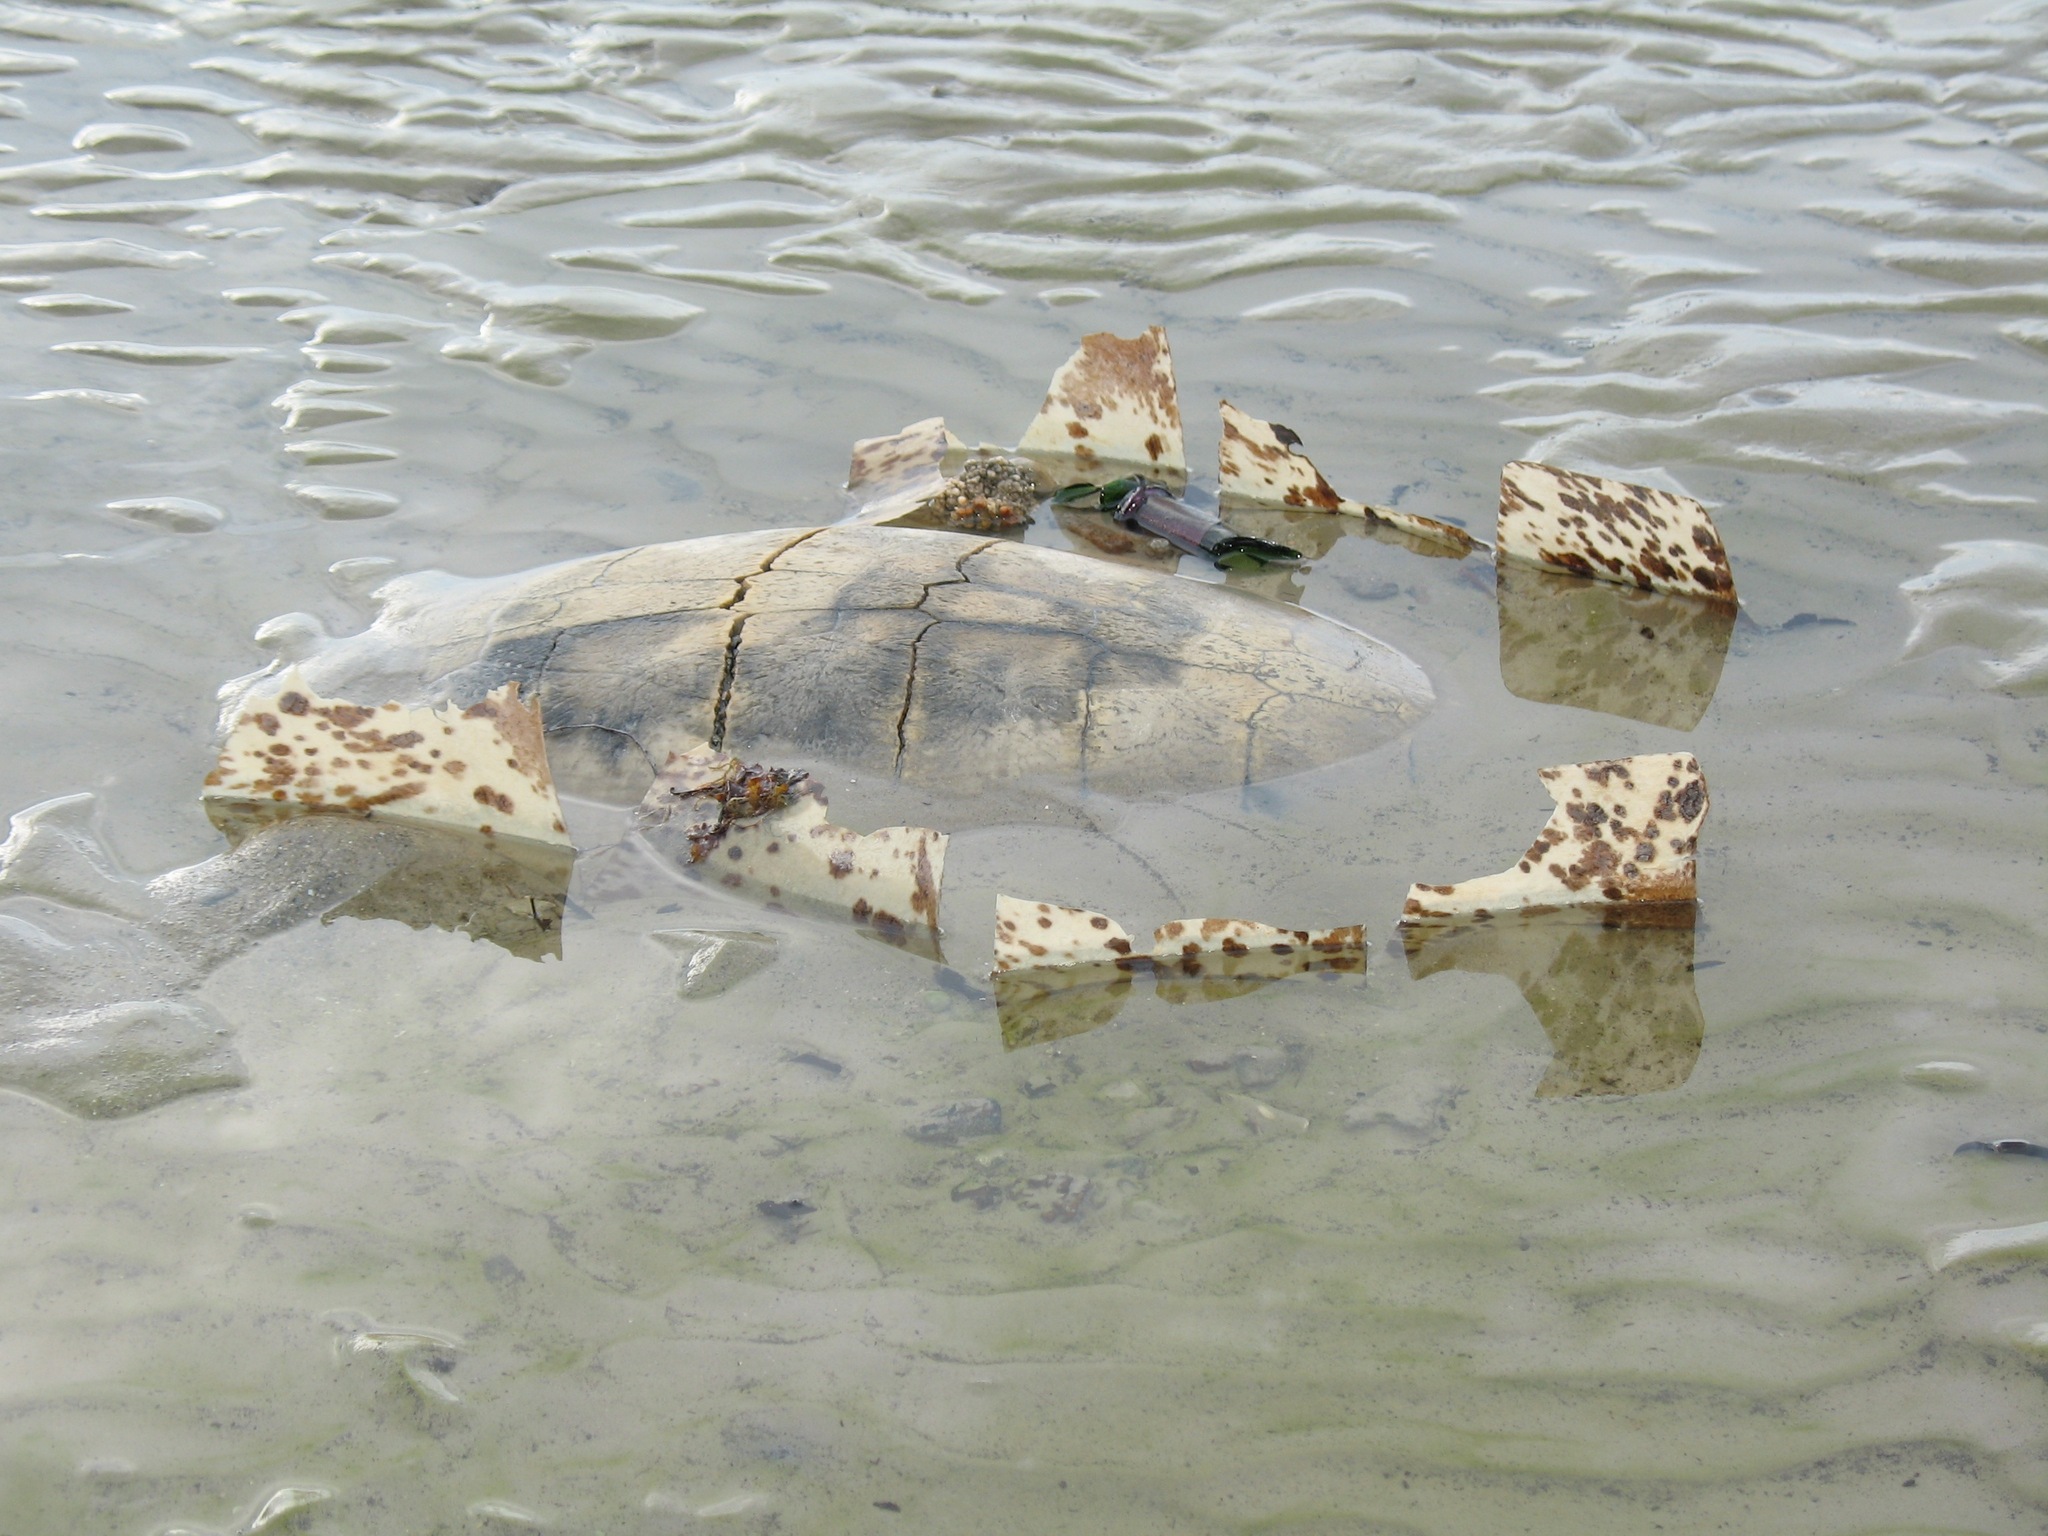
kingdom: Animalia
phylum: Chordata
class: Testudines
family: Cheloniidae
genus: Chelonia
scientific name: Chelonia mydas
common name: Green turtle
